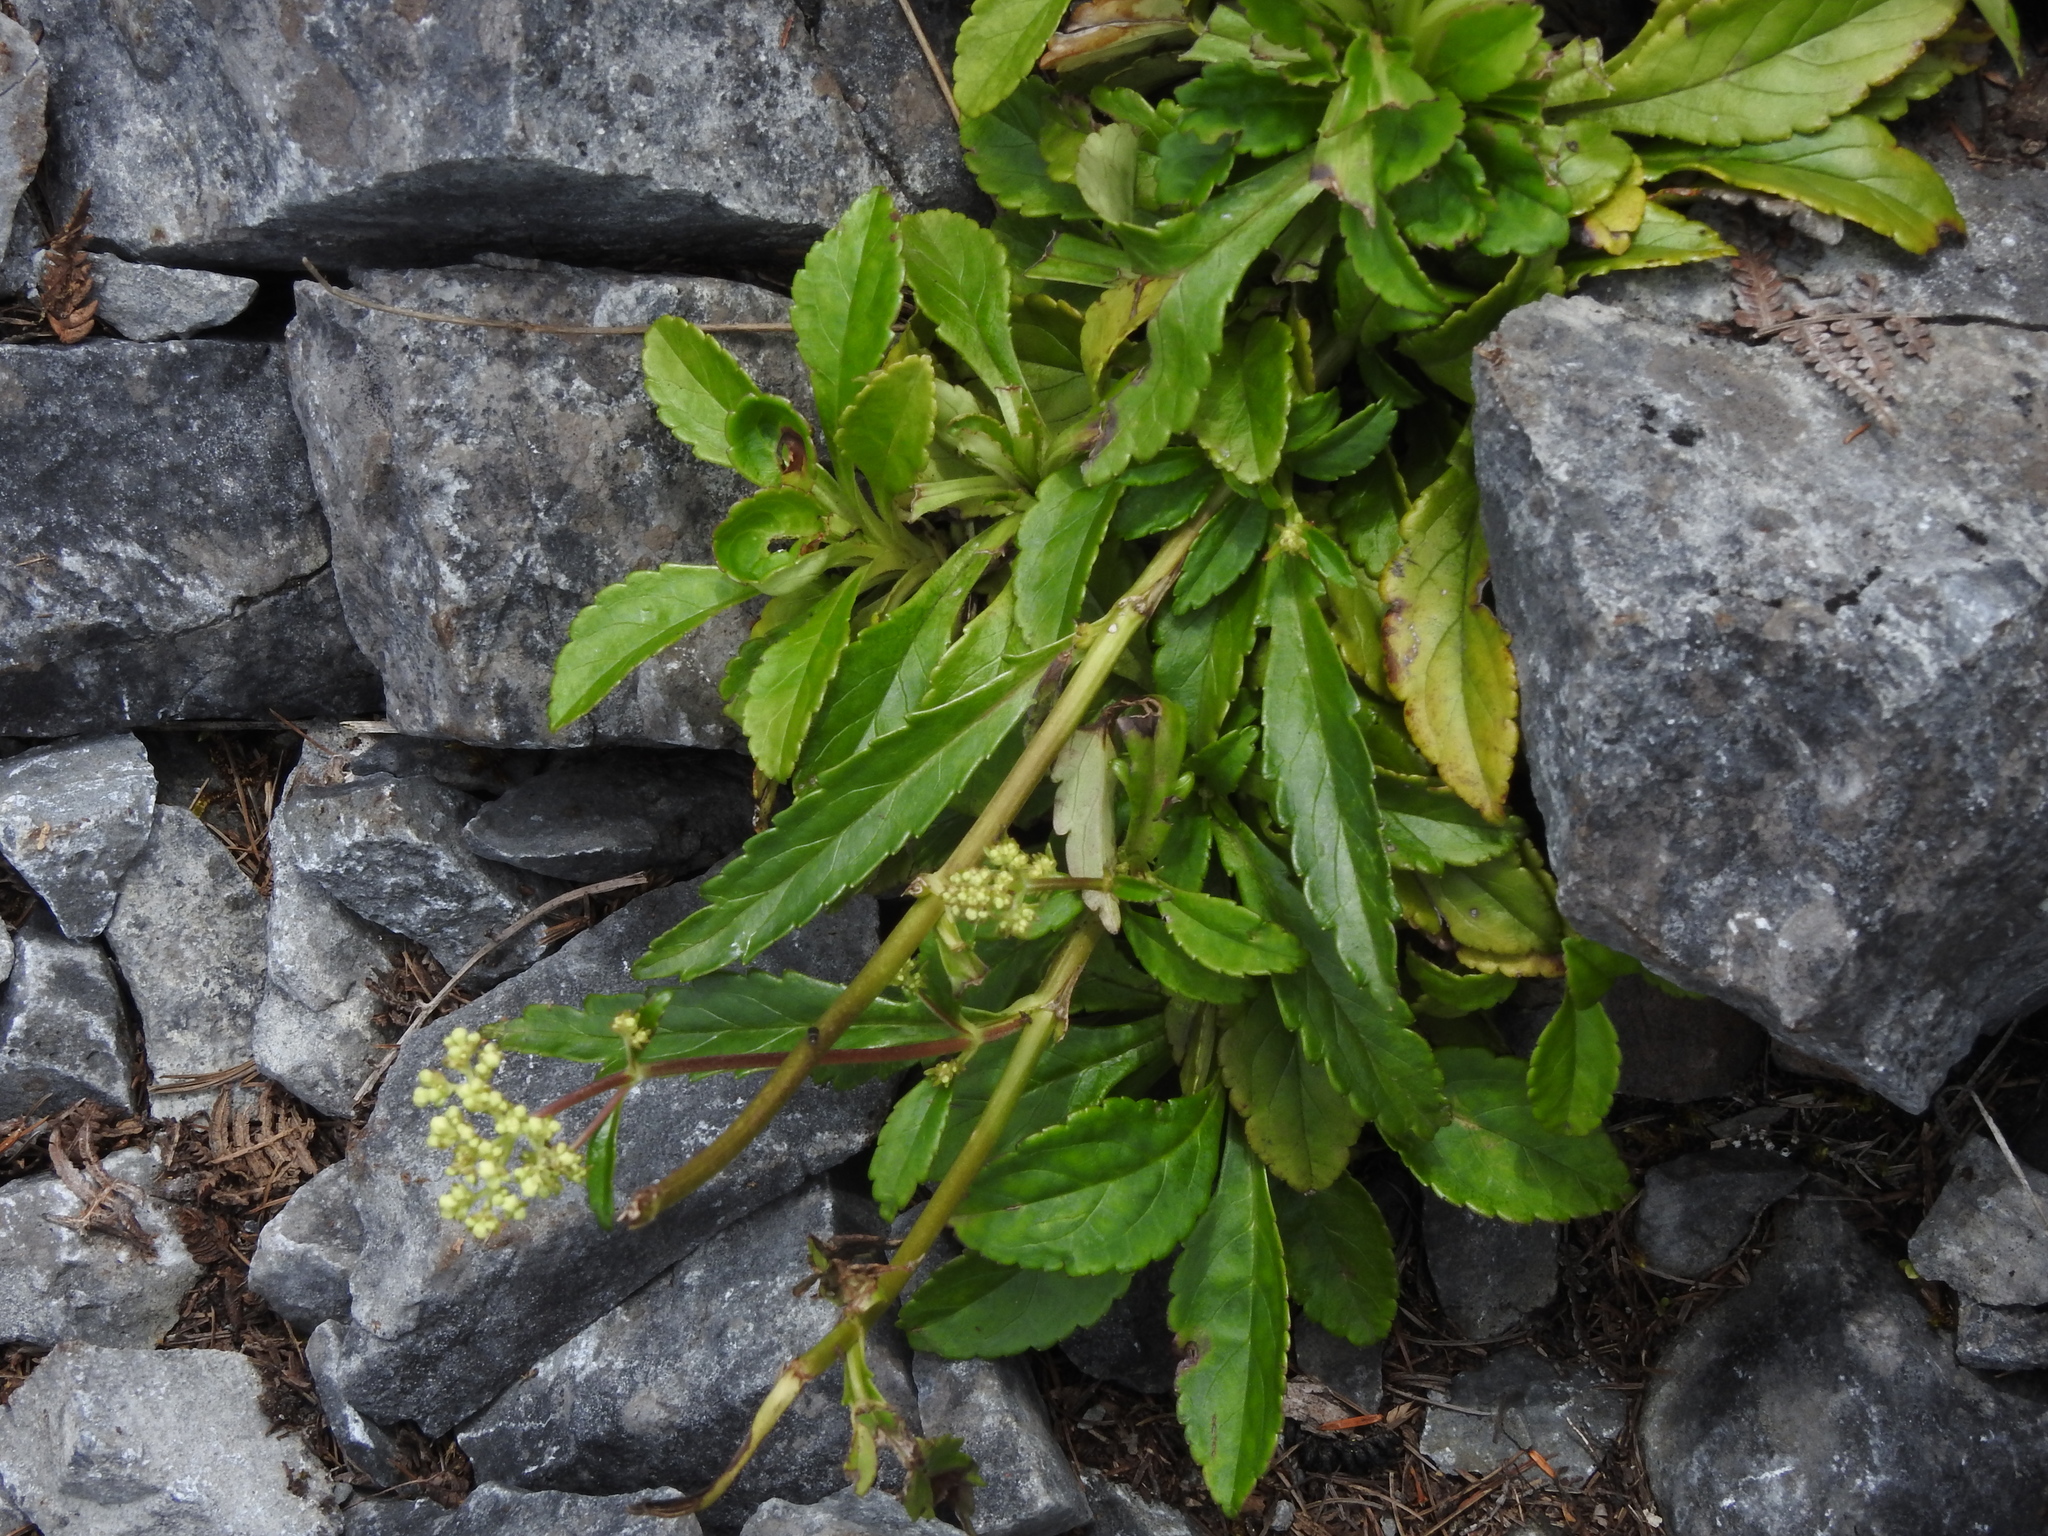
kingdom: Plantae
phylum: Tracheophyta
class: Magnoliopsida
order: Dipsacales
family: Caprifoliaceae
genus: Patrinia
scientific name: Patrinia glabrifolia
